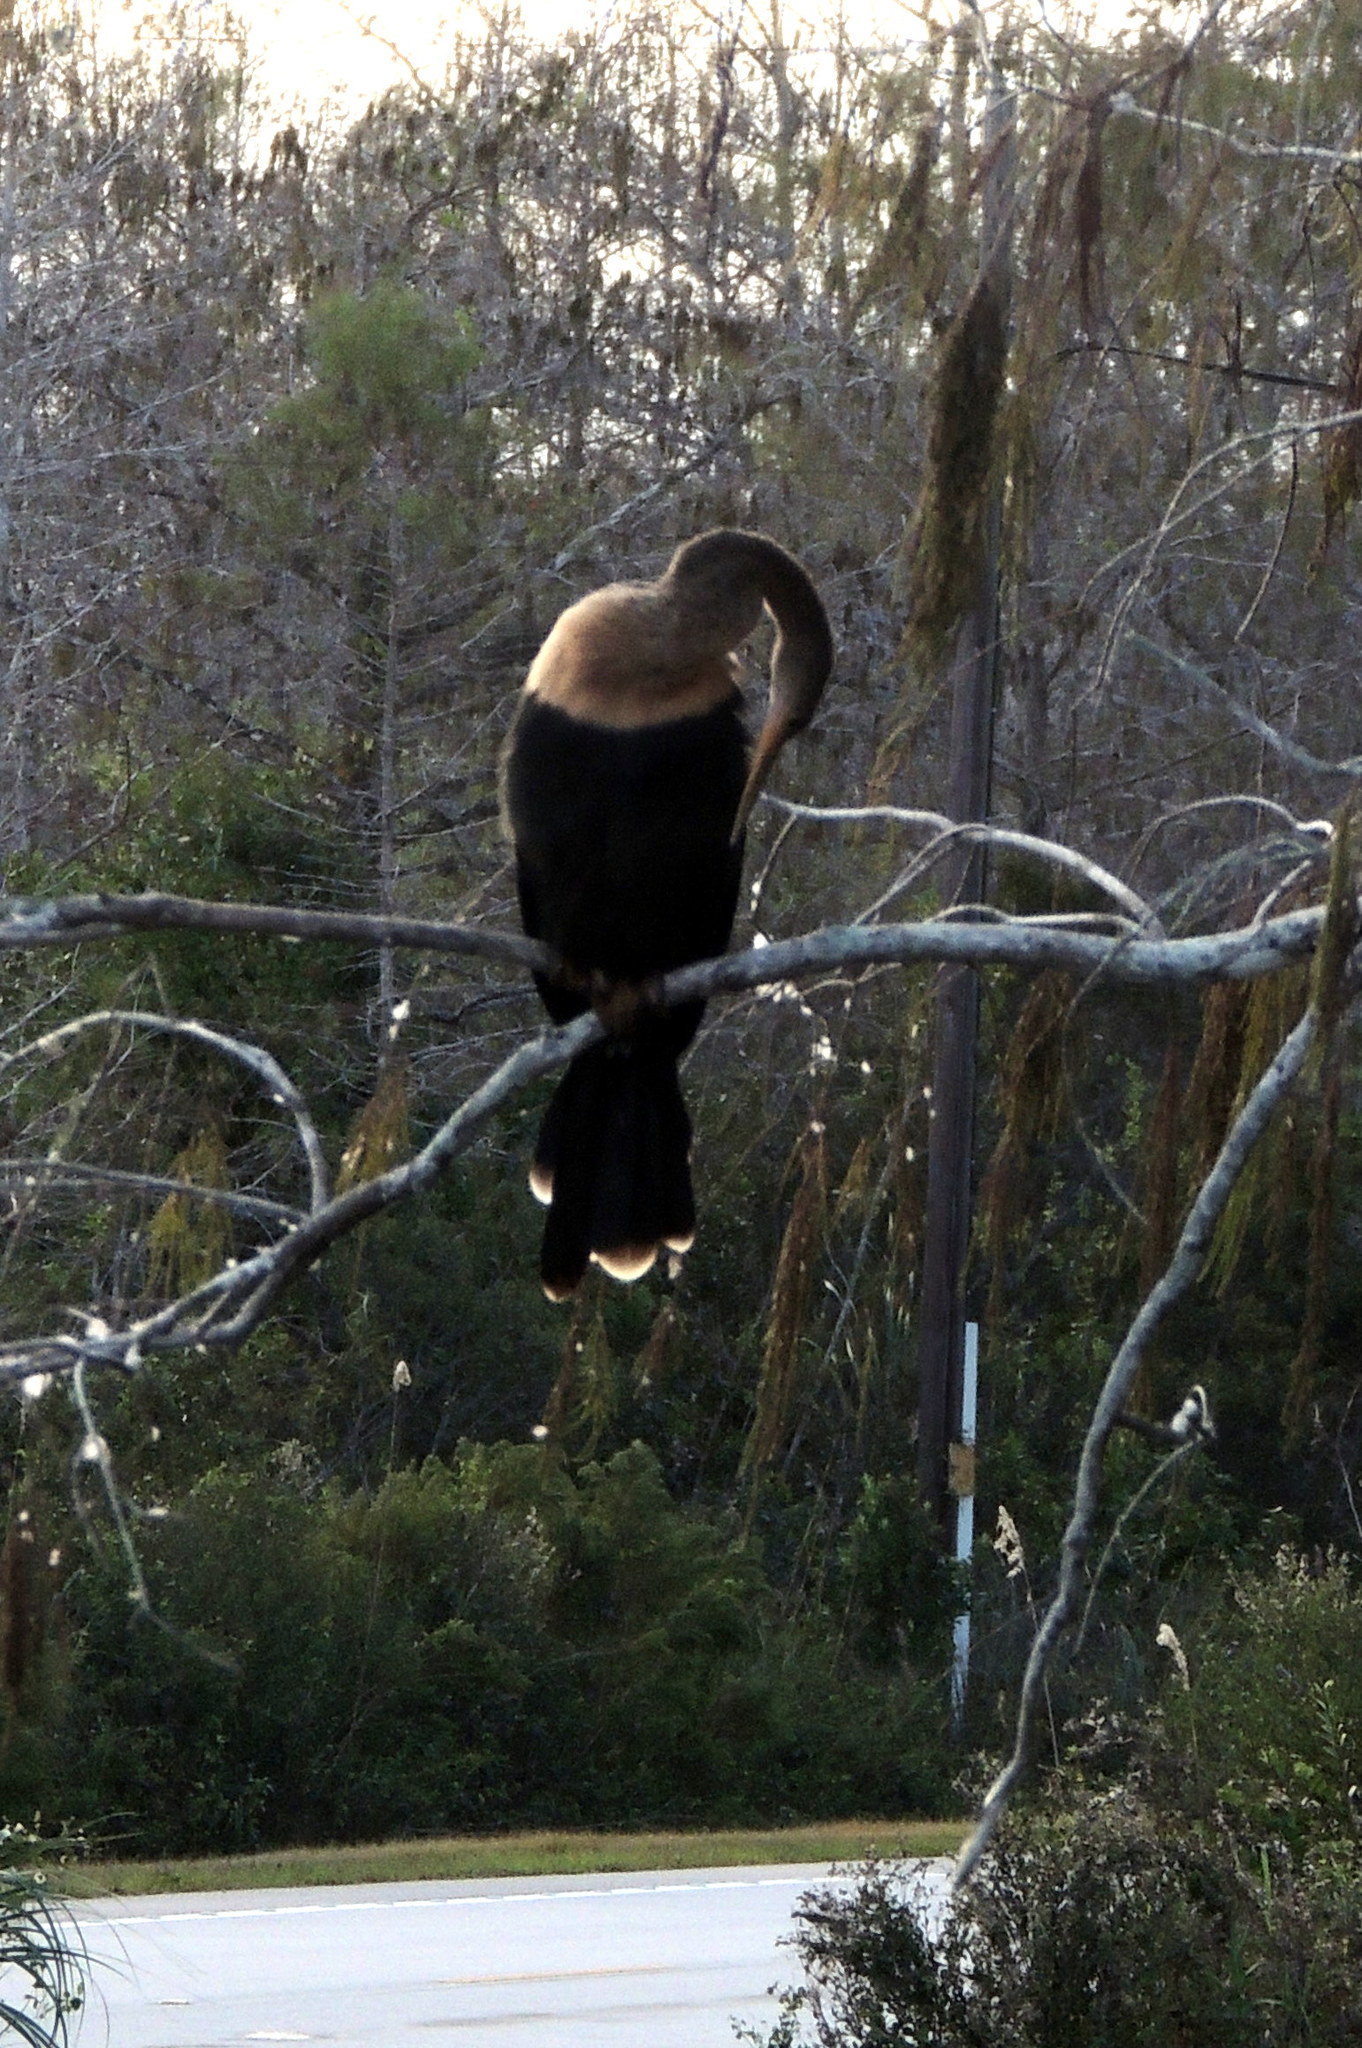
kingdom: Animalia
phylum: Chordata
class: Aves
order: Suliformes
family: Anhingidae
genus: Anhinga
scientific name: Anhinga anhinga
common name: Anhinga
